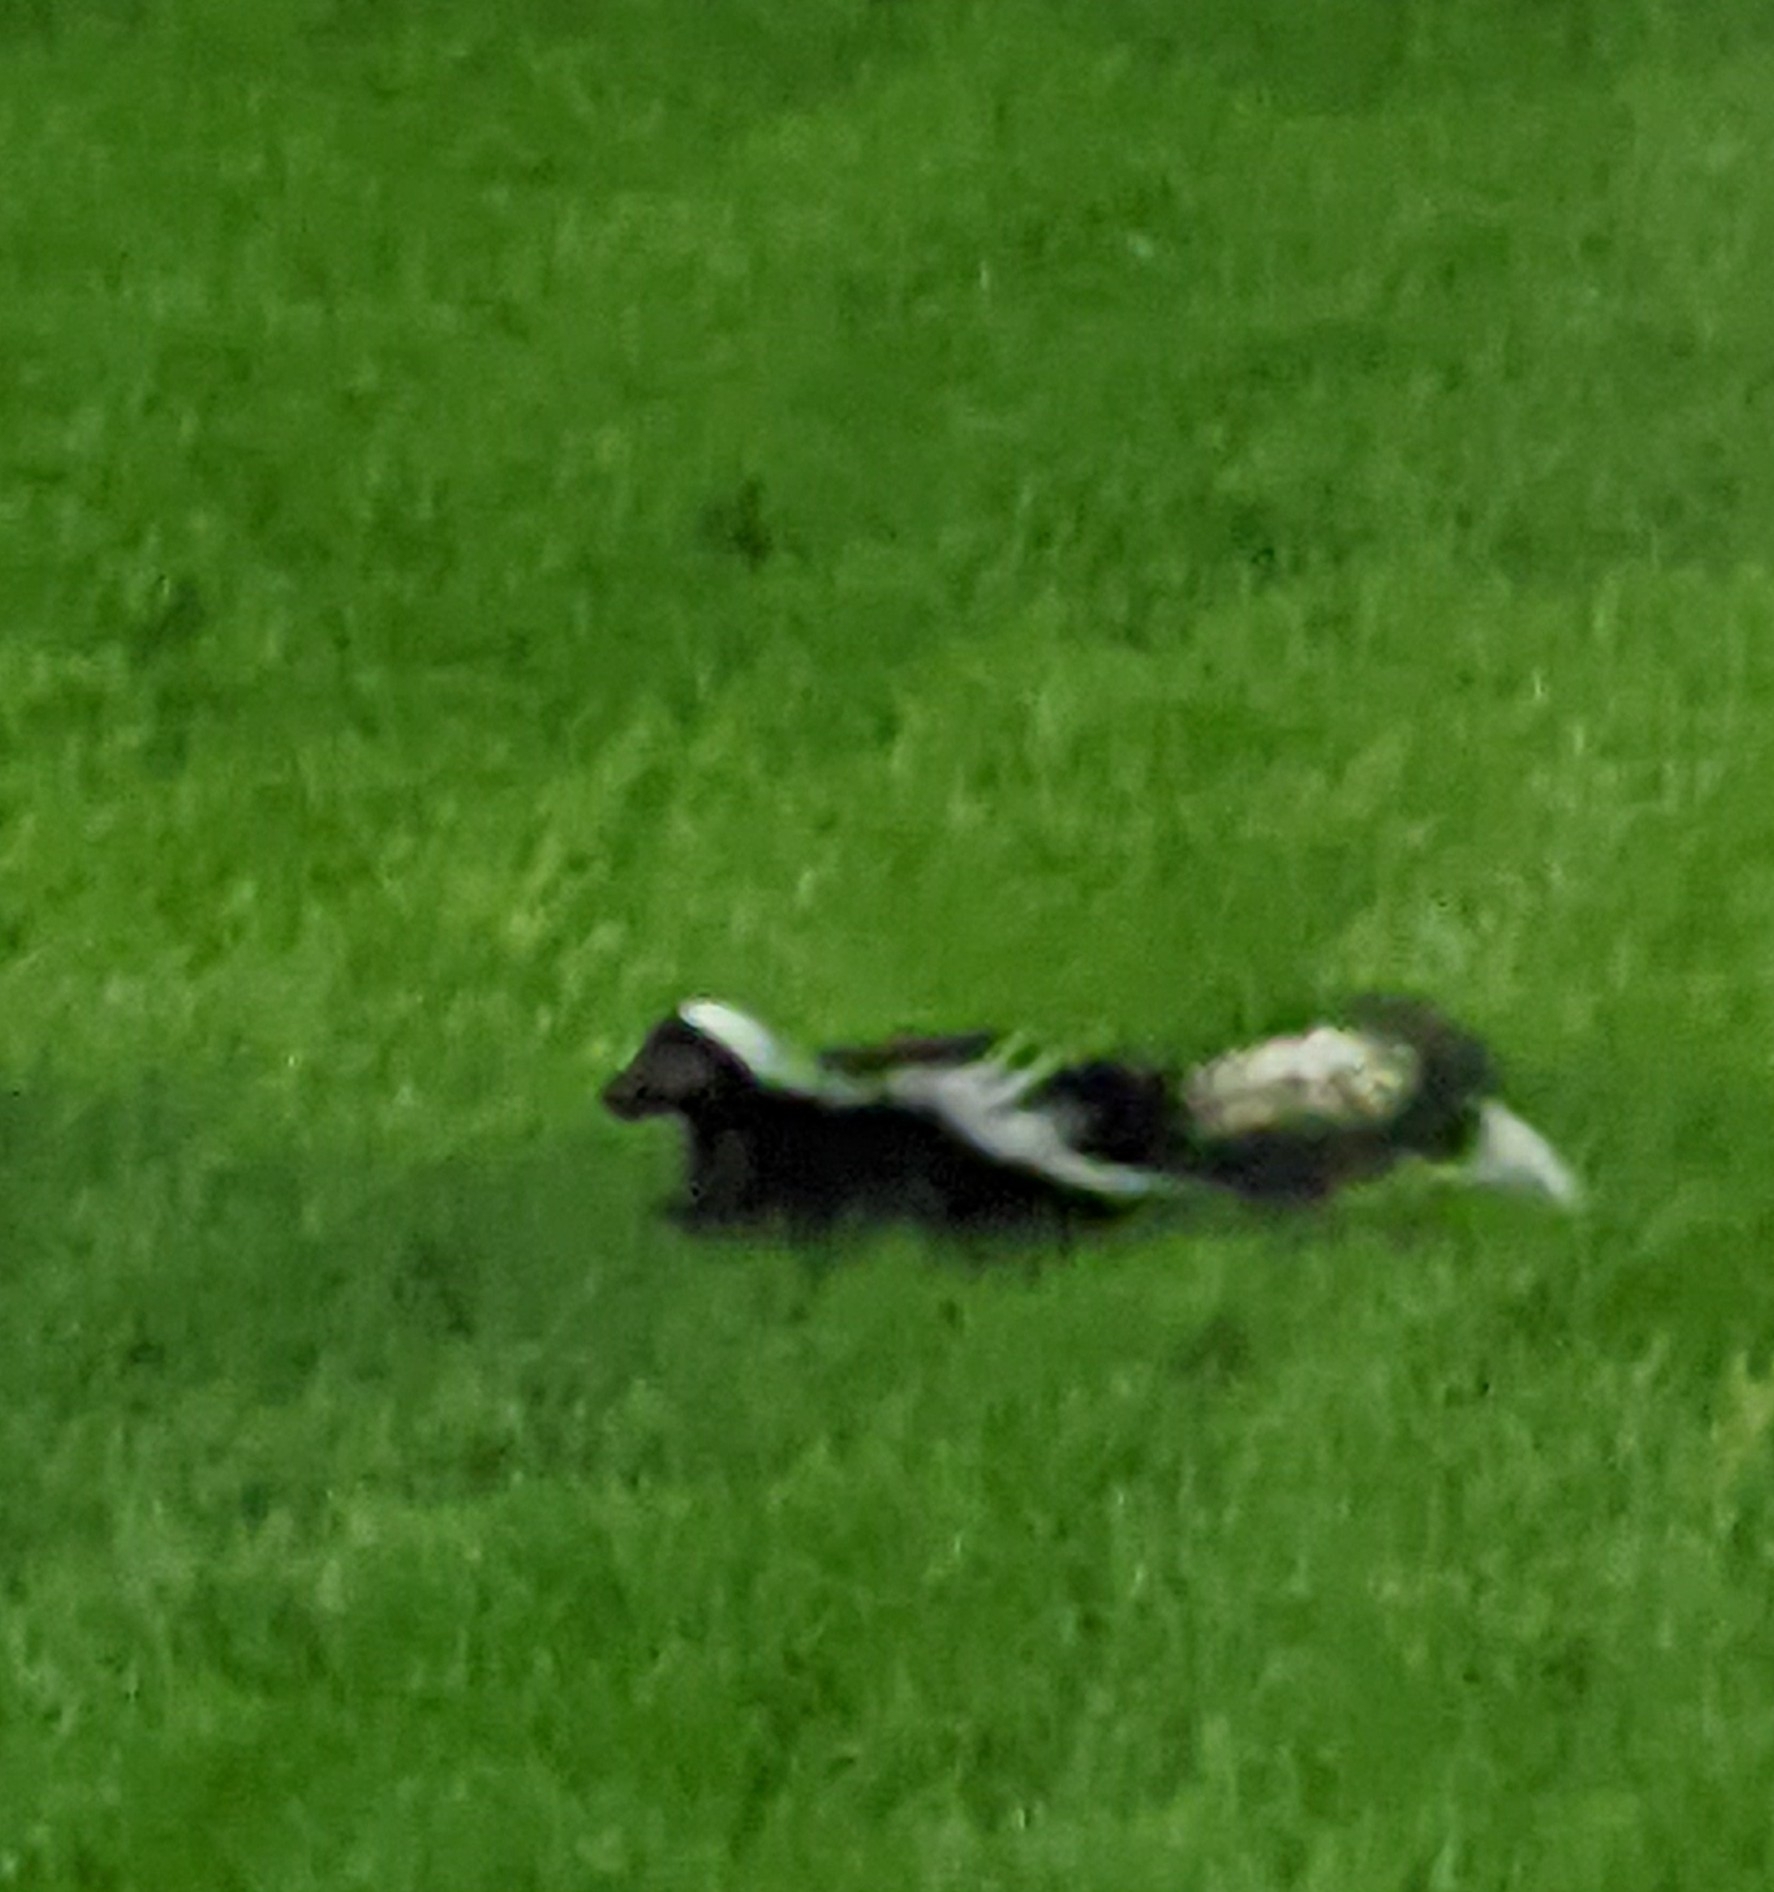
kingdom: Animalia
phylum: Chordata
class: Mammalia
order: Carnivora
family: Mephitidae
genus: Mephitis
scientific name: Mephitis mephitis
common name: Striped skunk
